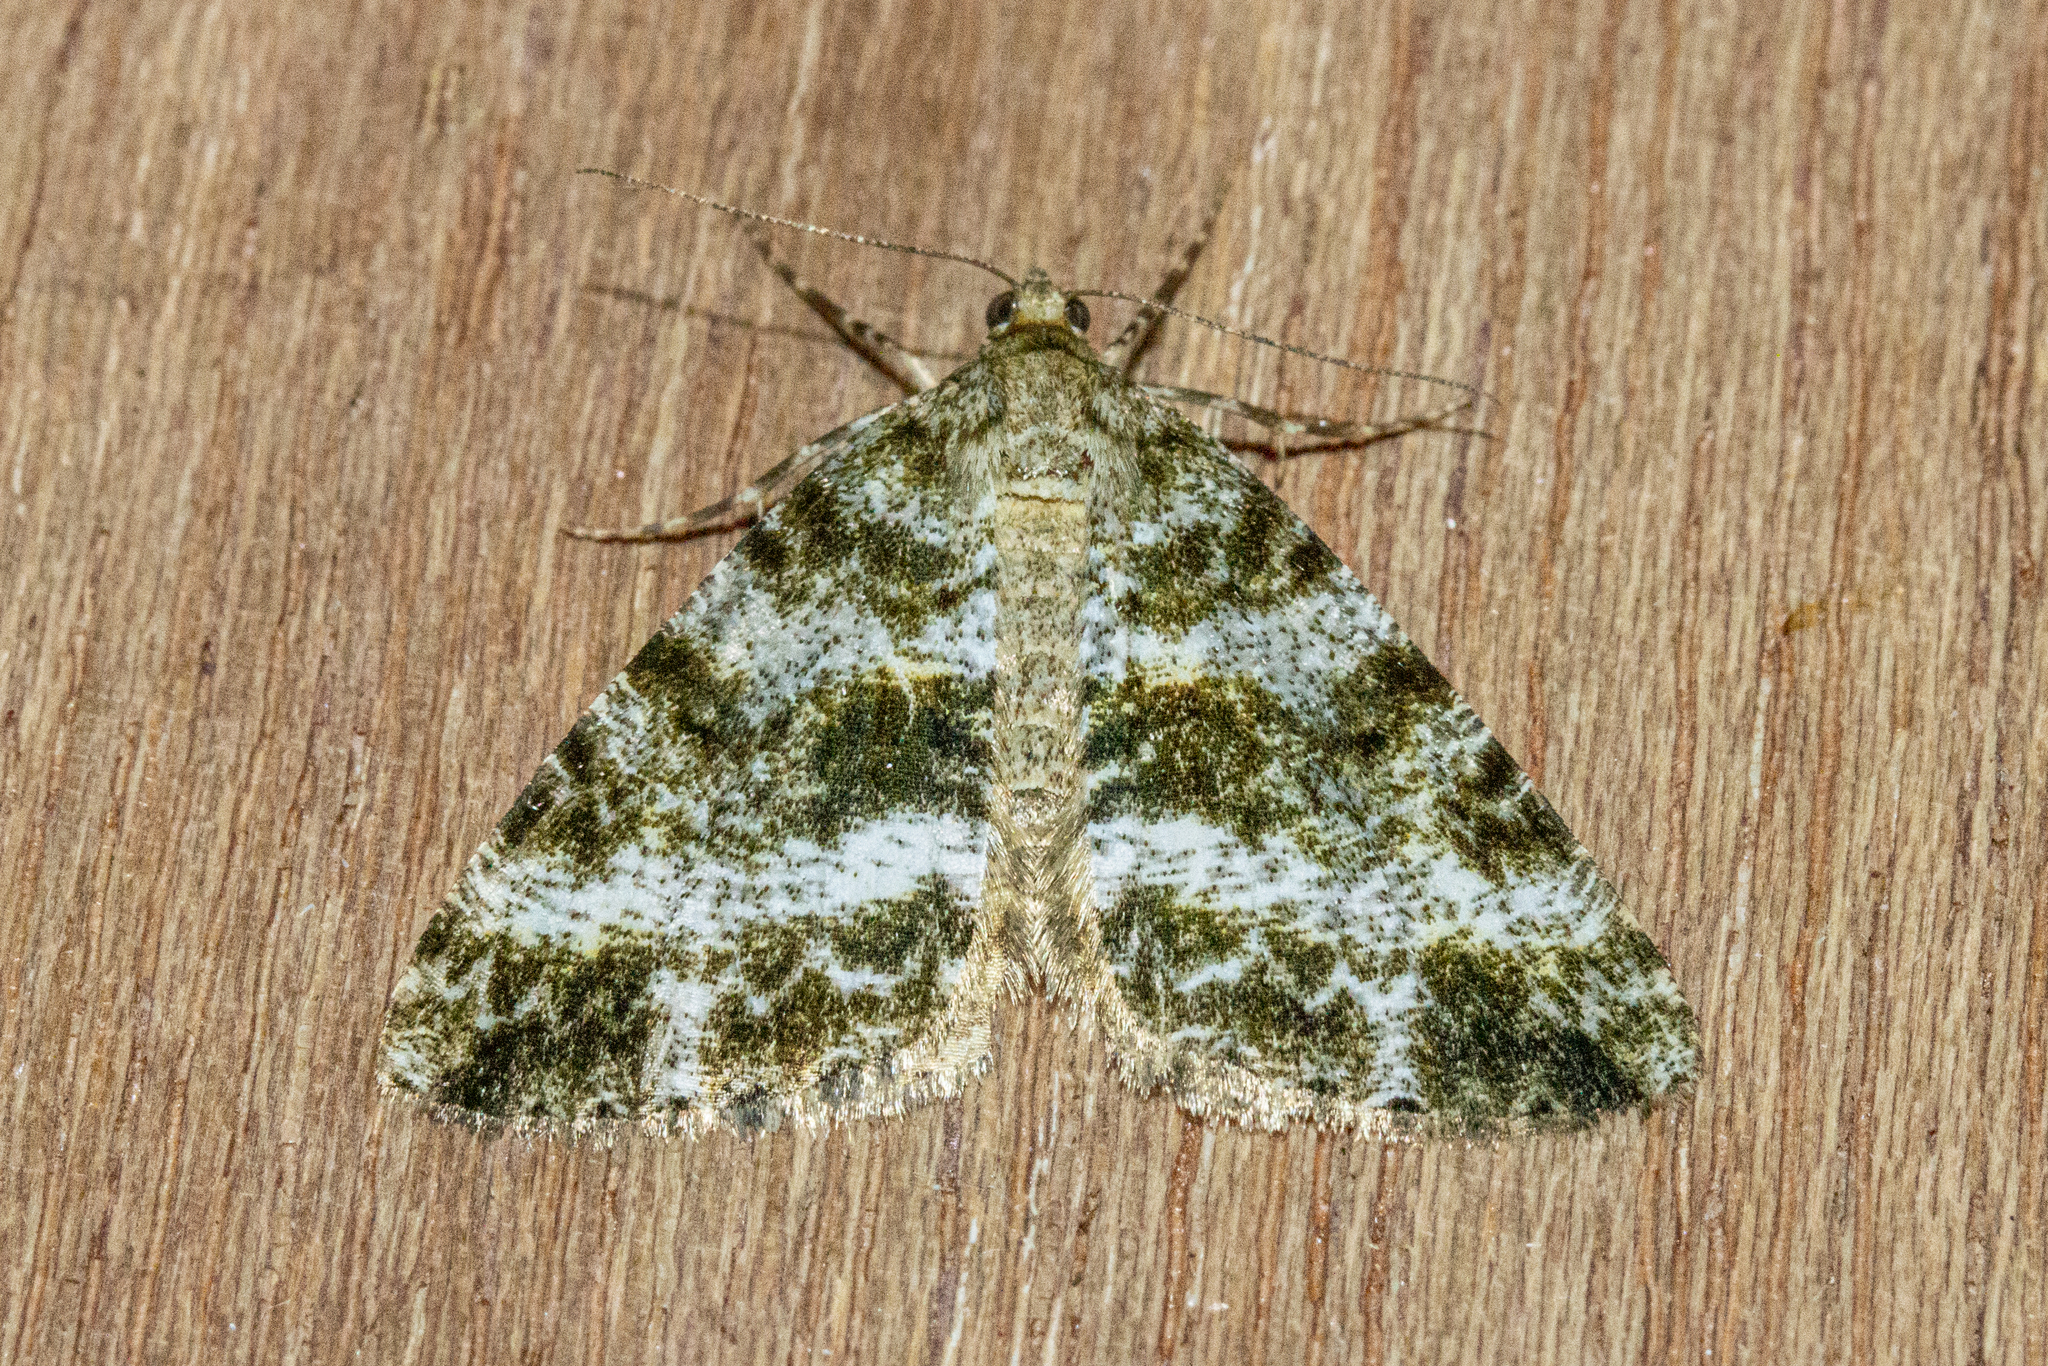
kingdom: Animalia
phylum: Arthropoda
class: Insecta
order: Lepidoptera
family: Geometridae
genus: Pseudocoremia
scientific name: Pseudocoremia lactiflua
